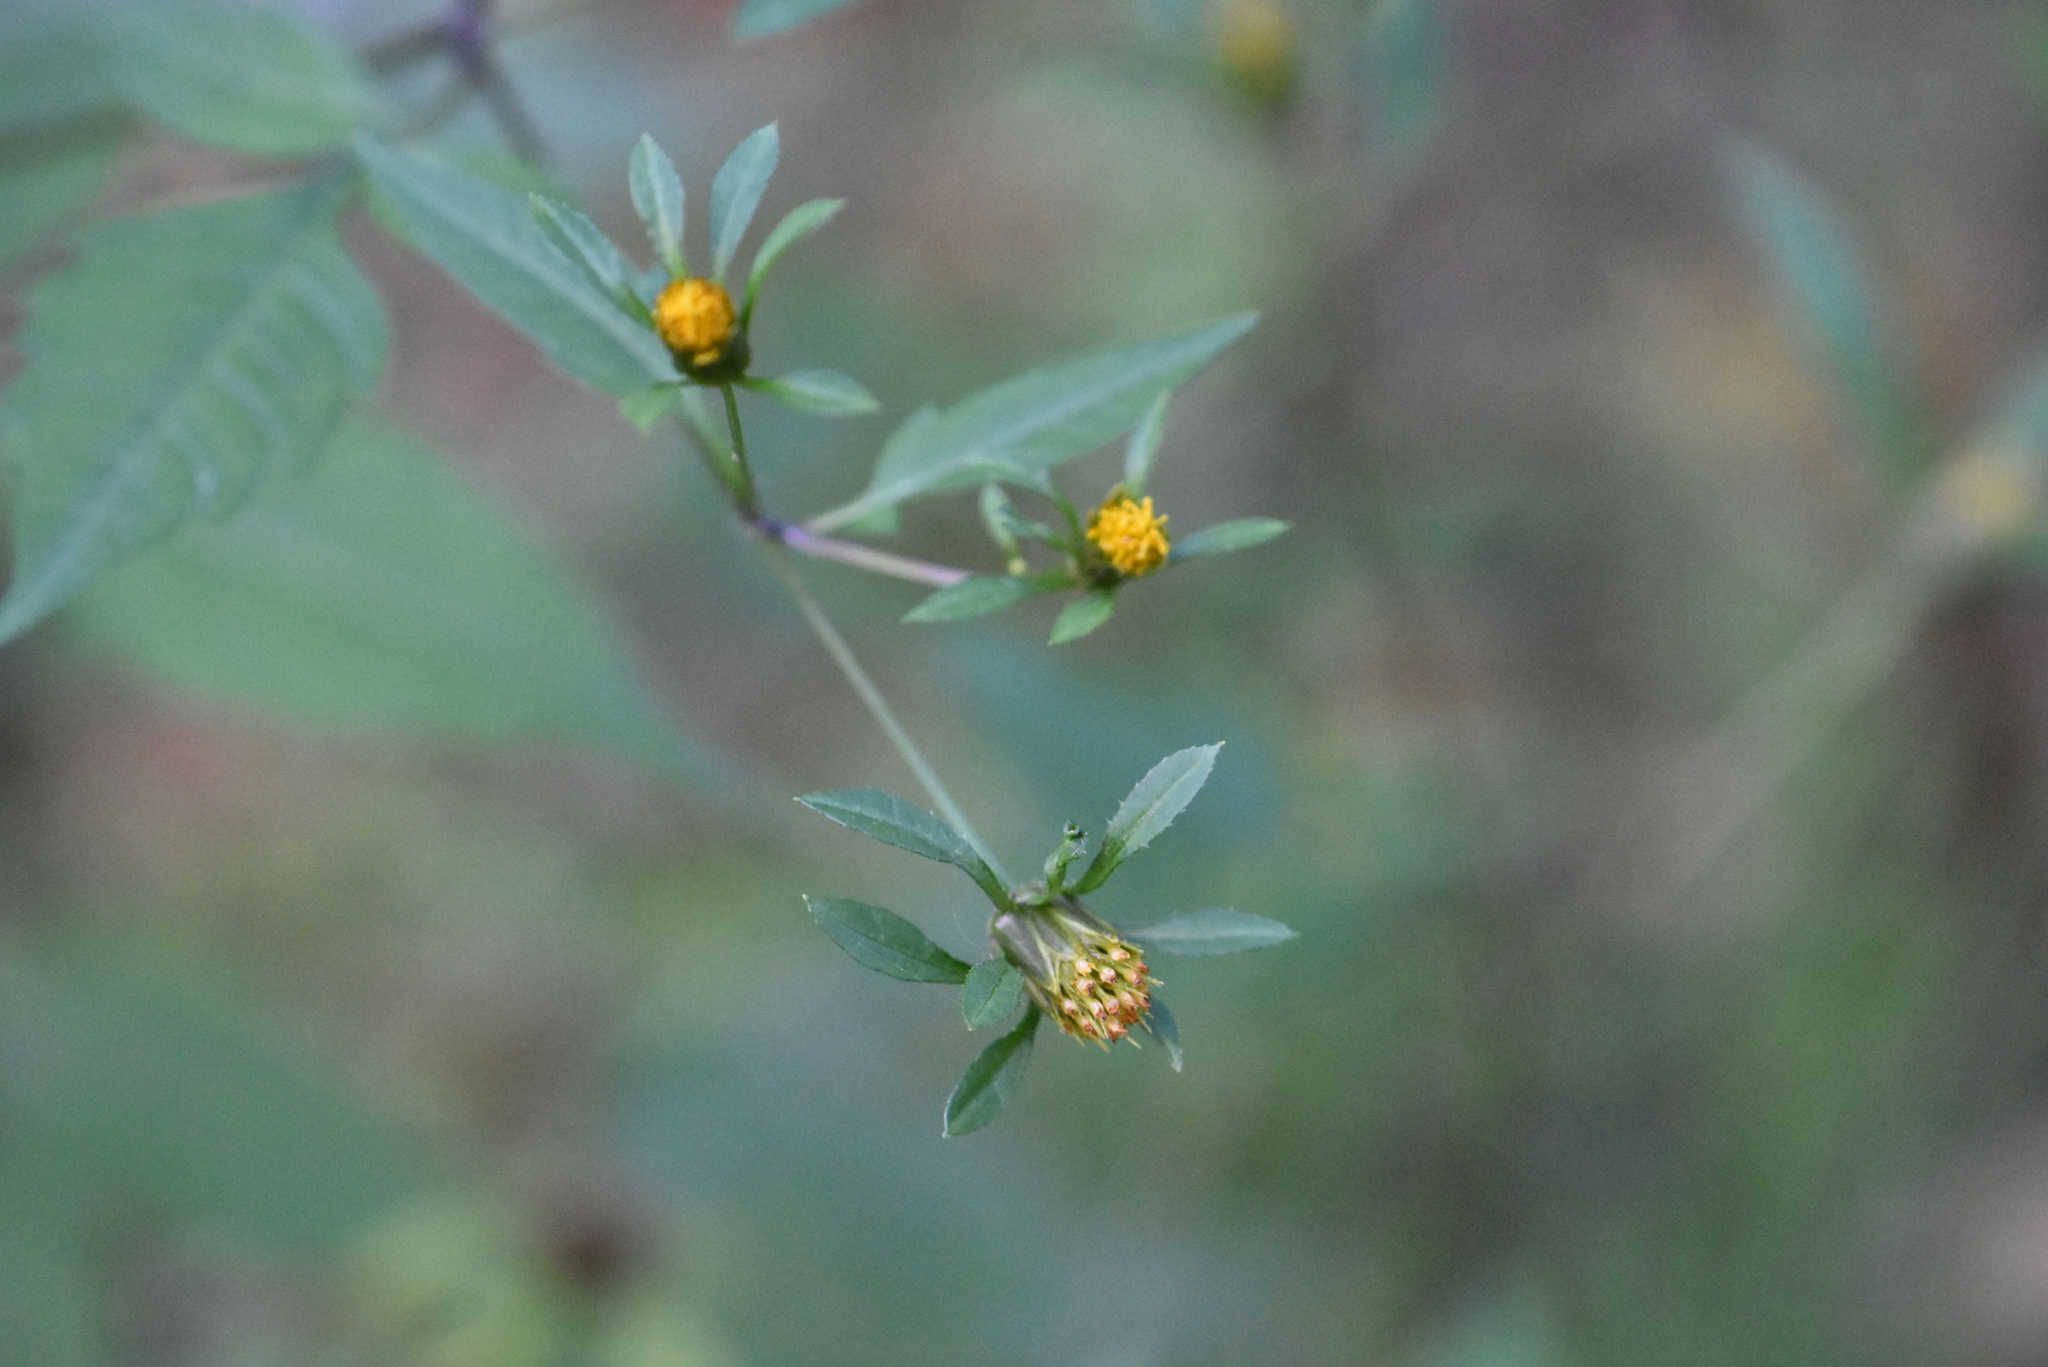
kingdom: Plantae
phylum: Tracheophyta
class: Magnoliopsida
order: Asterales
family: Asteraceae
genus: Bidens
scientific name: Bidens frondosa
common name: Beggarticks
